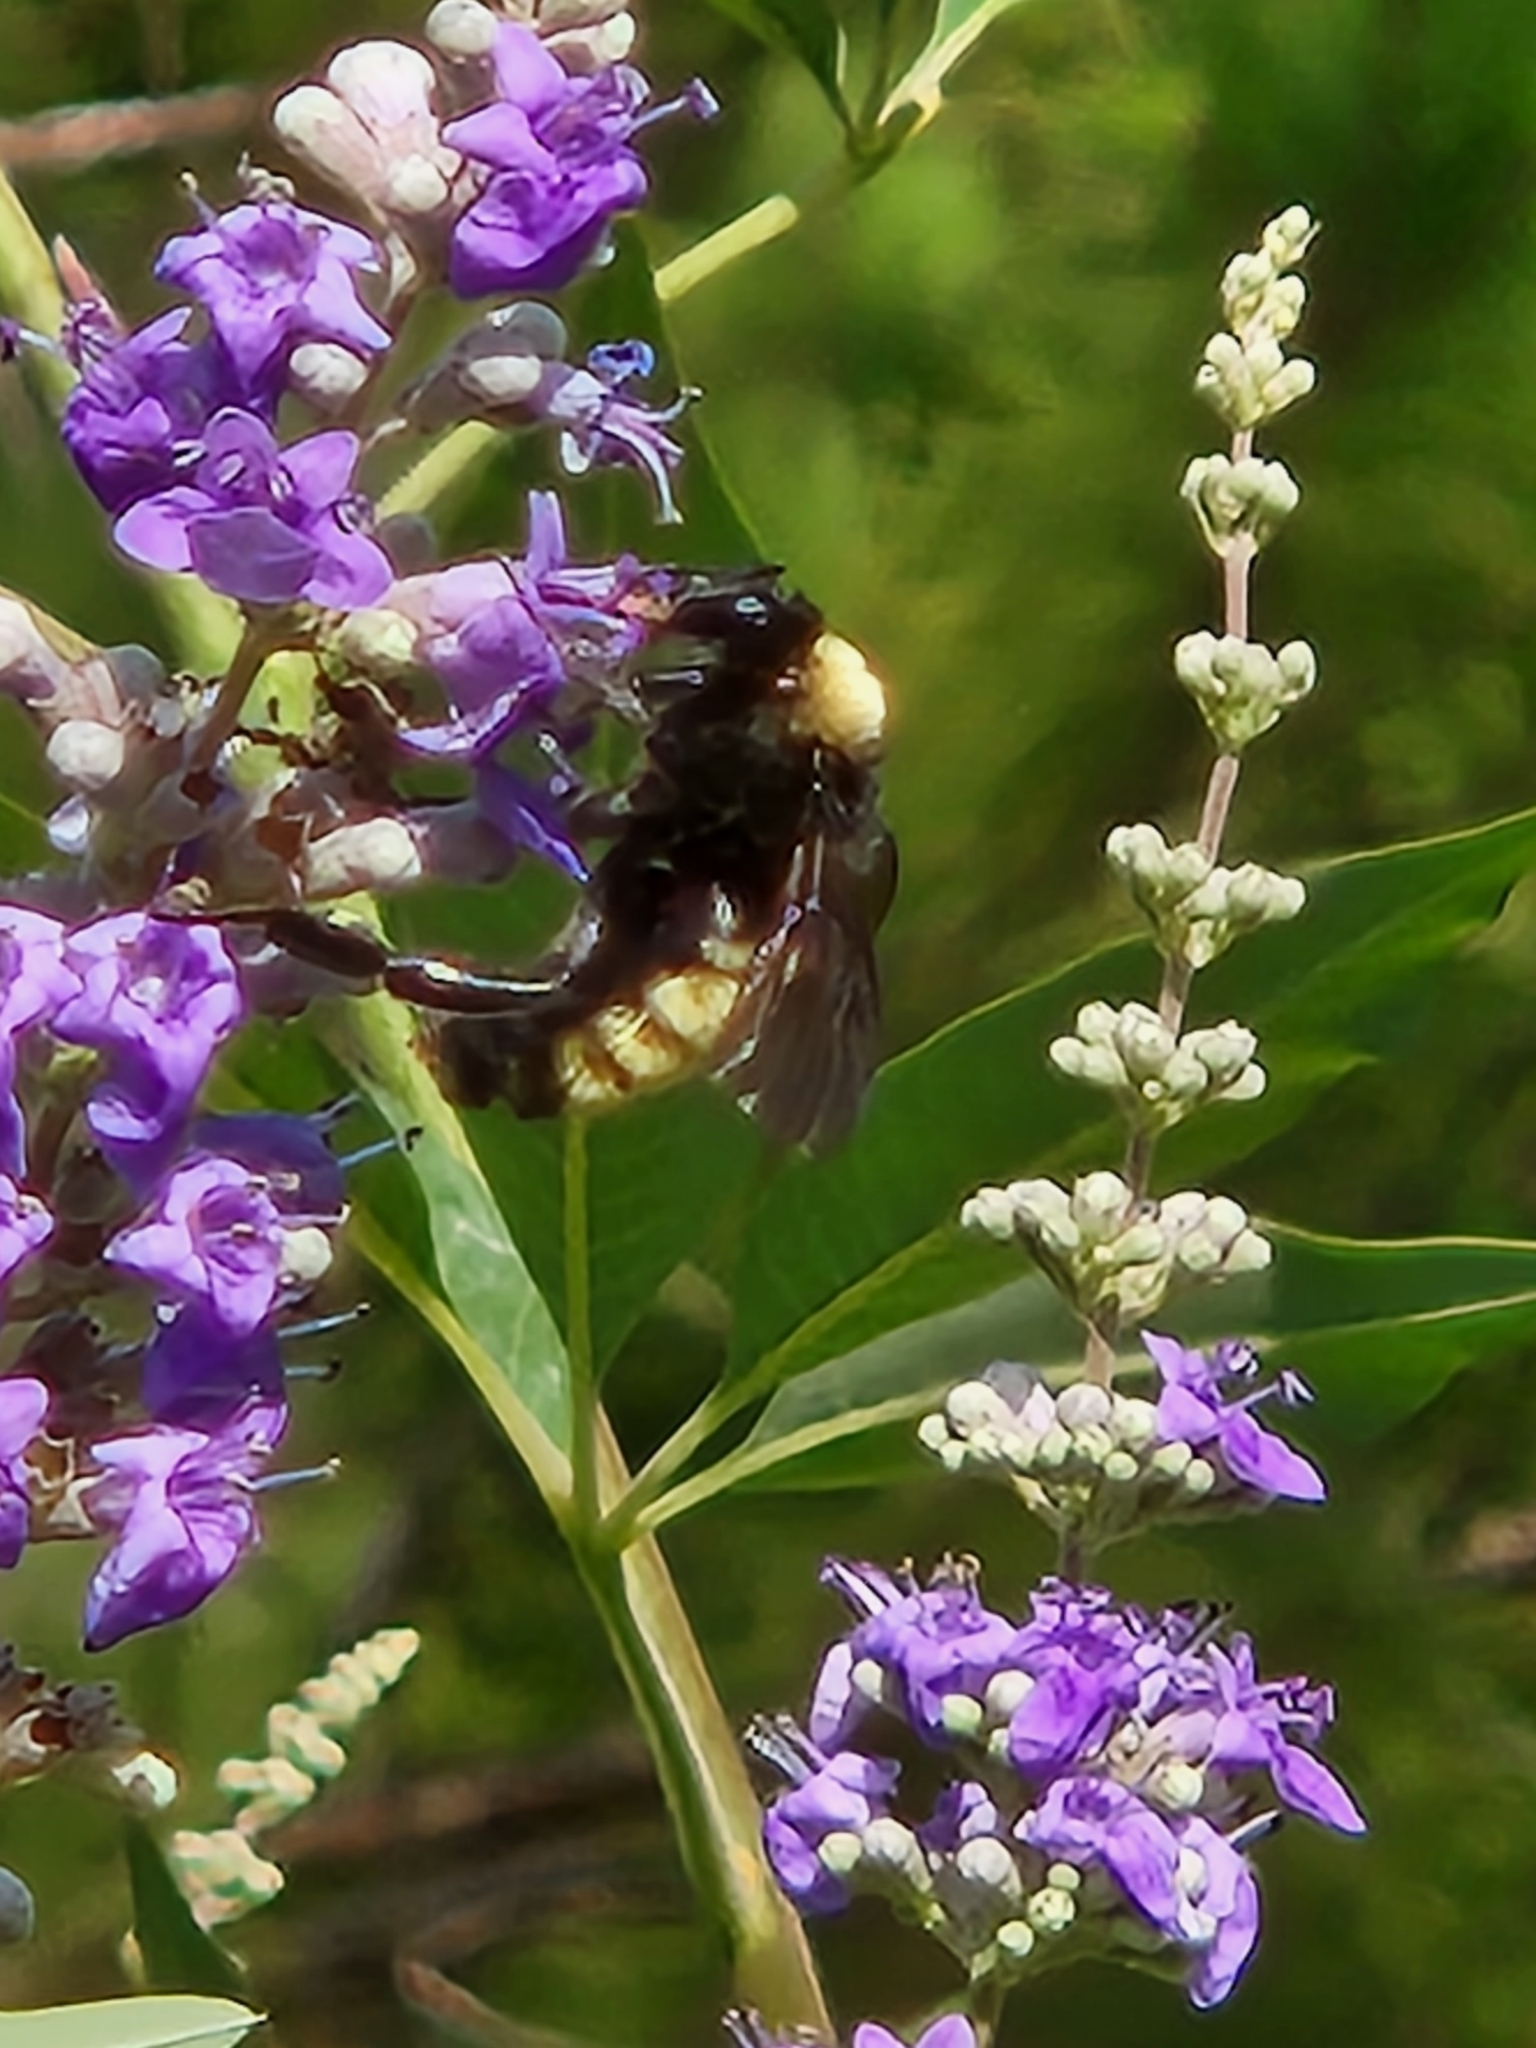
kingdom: Animalia
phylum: Arthropoda
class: Insecta
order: Hymenoptera
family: Apidae
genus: Bombus
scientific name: Bombus pensylvanicus
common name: Bumble bee
